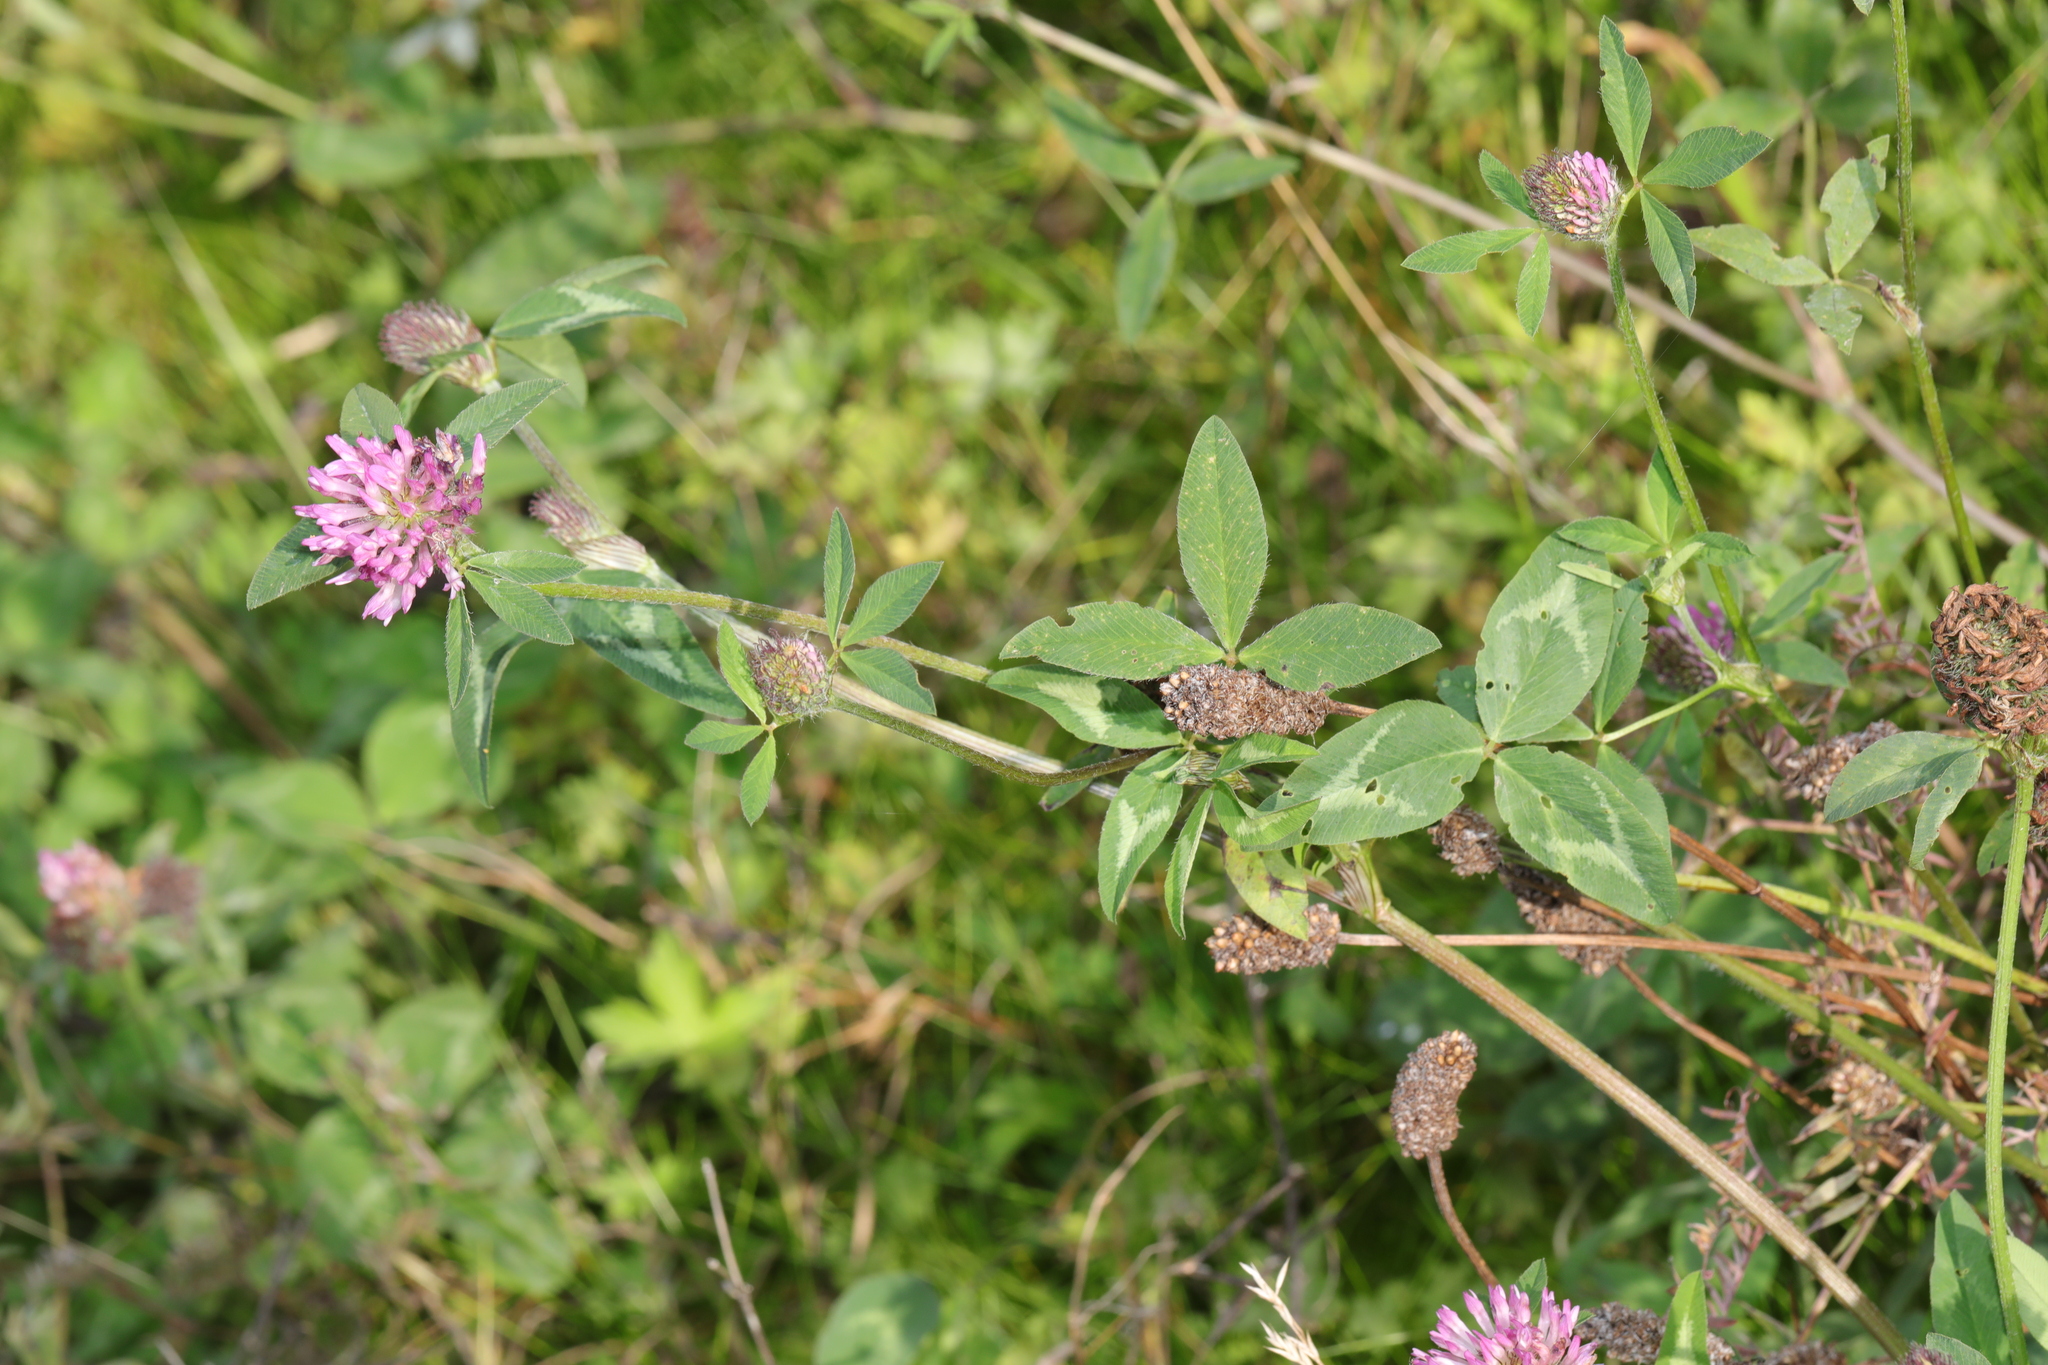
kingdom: Plantae
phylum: Tracheophyta
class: Magnoliopsida
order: Fabales
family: Fabaceae
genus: Trifolium
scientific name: Trifolium pratense
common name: Red clover
